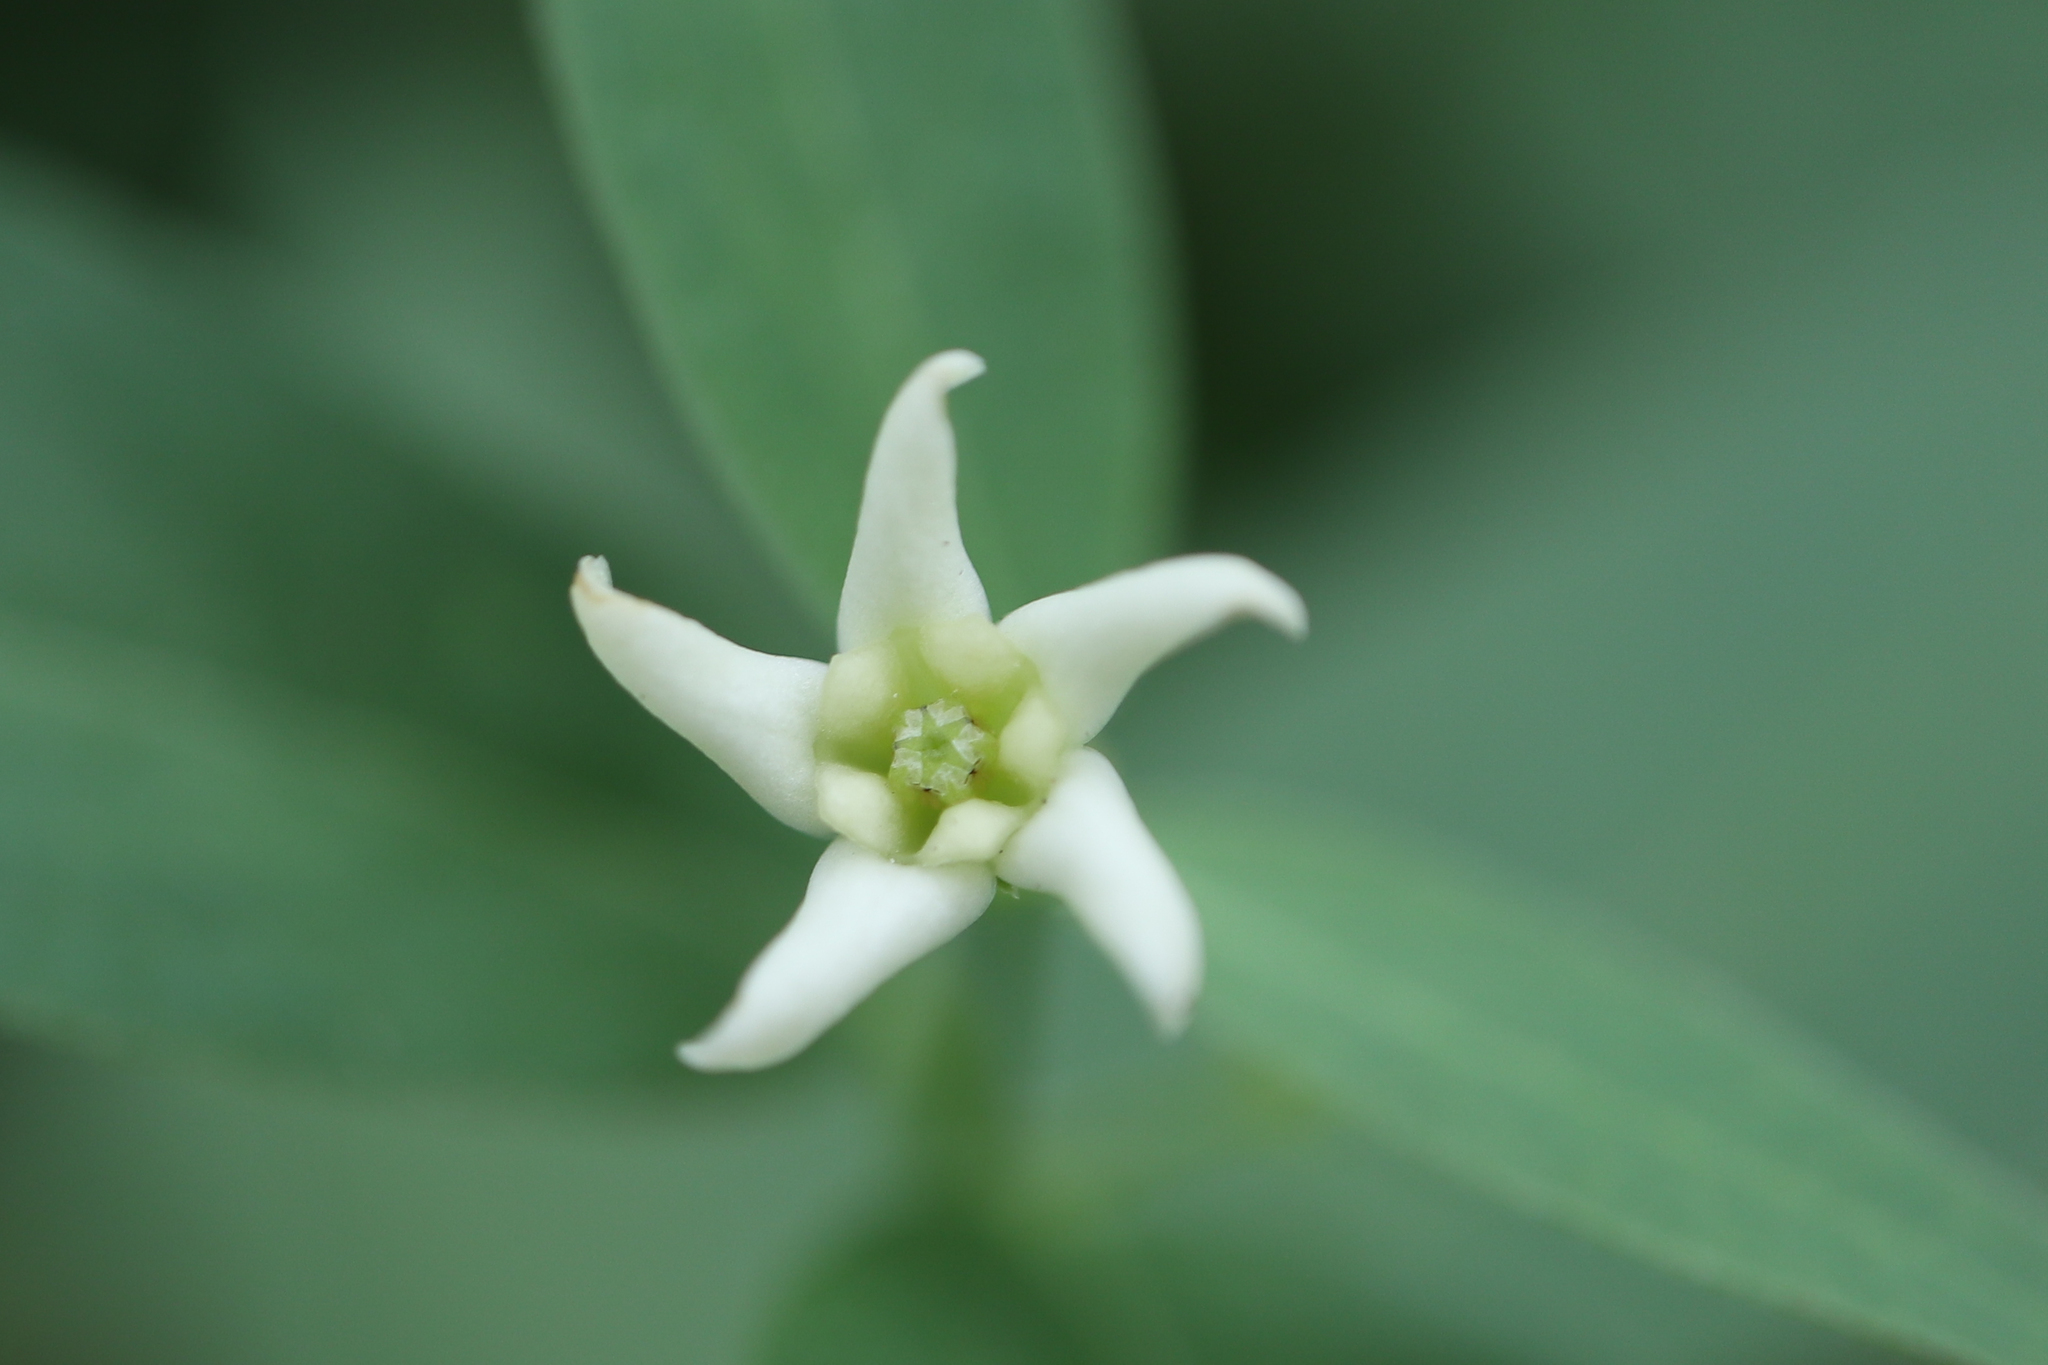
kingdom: Plantae
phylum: Tracheophyta
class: Magnoliopsida
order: Gentianales
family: Apocynaceae
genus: Vincetoxicum
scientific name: Vincetoxicum hirundinaria
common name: White swallowwort
